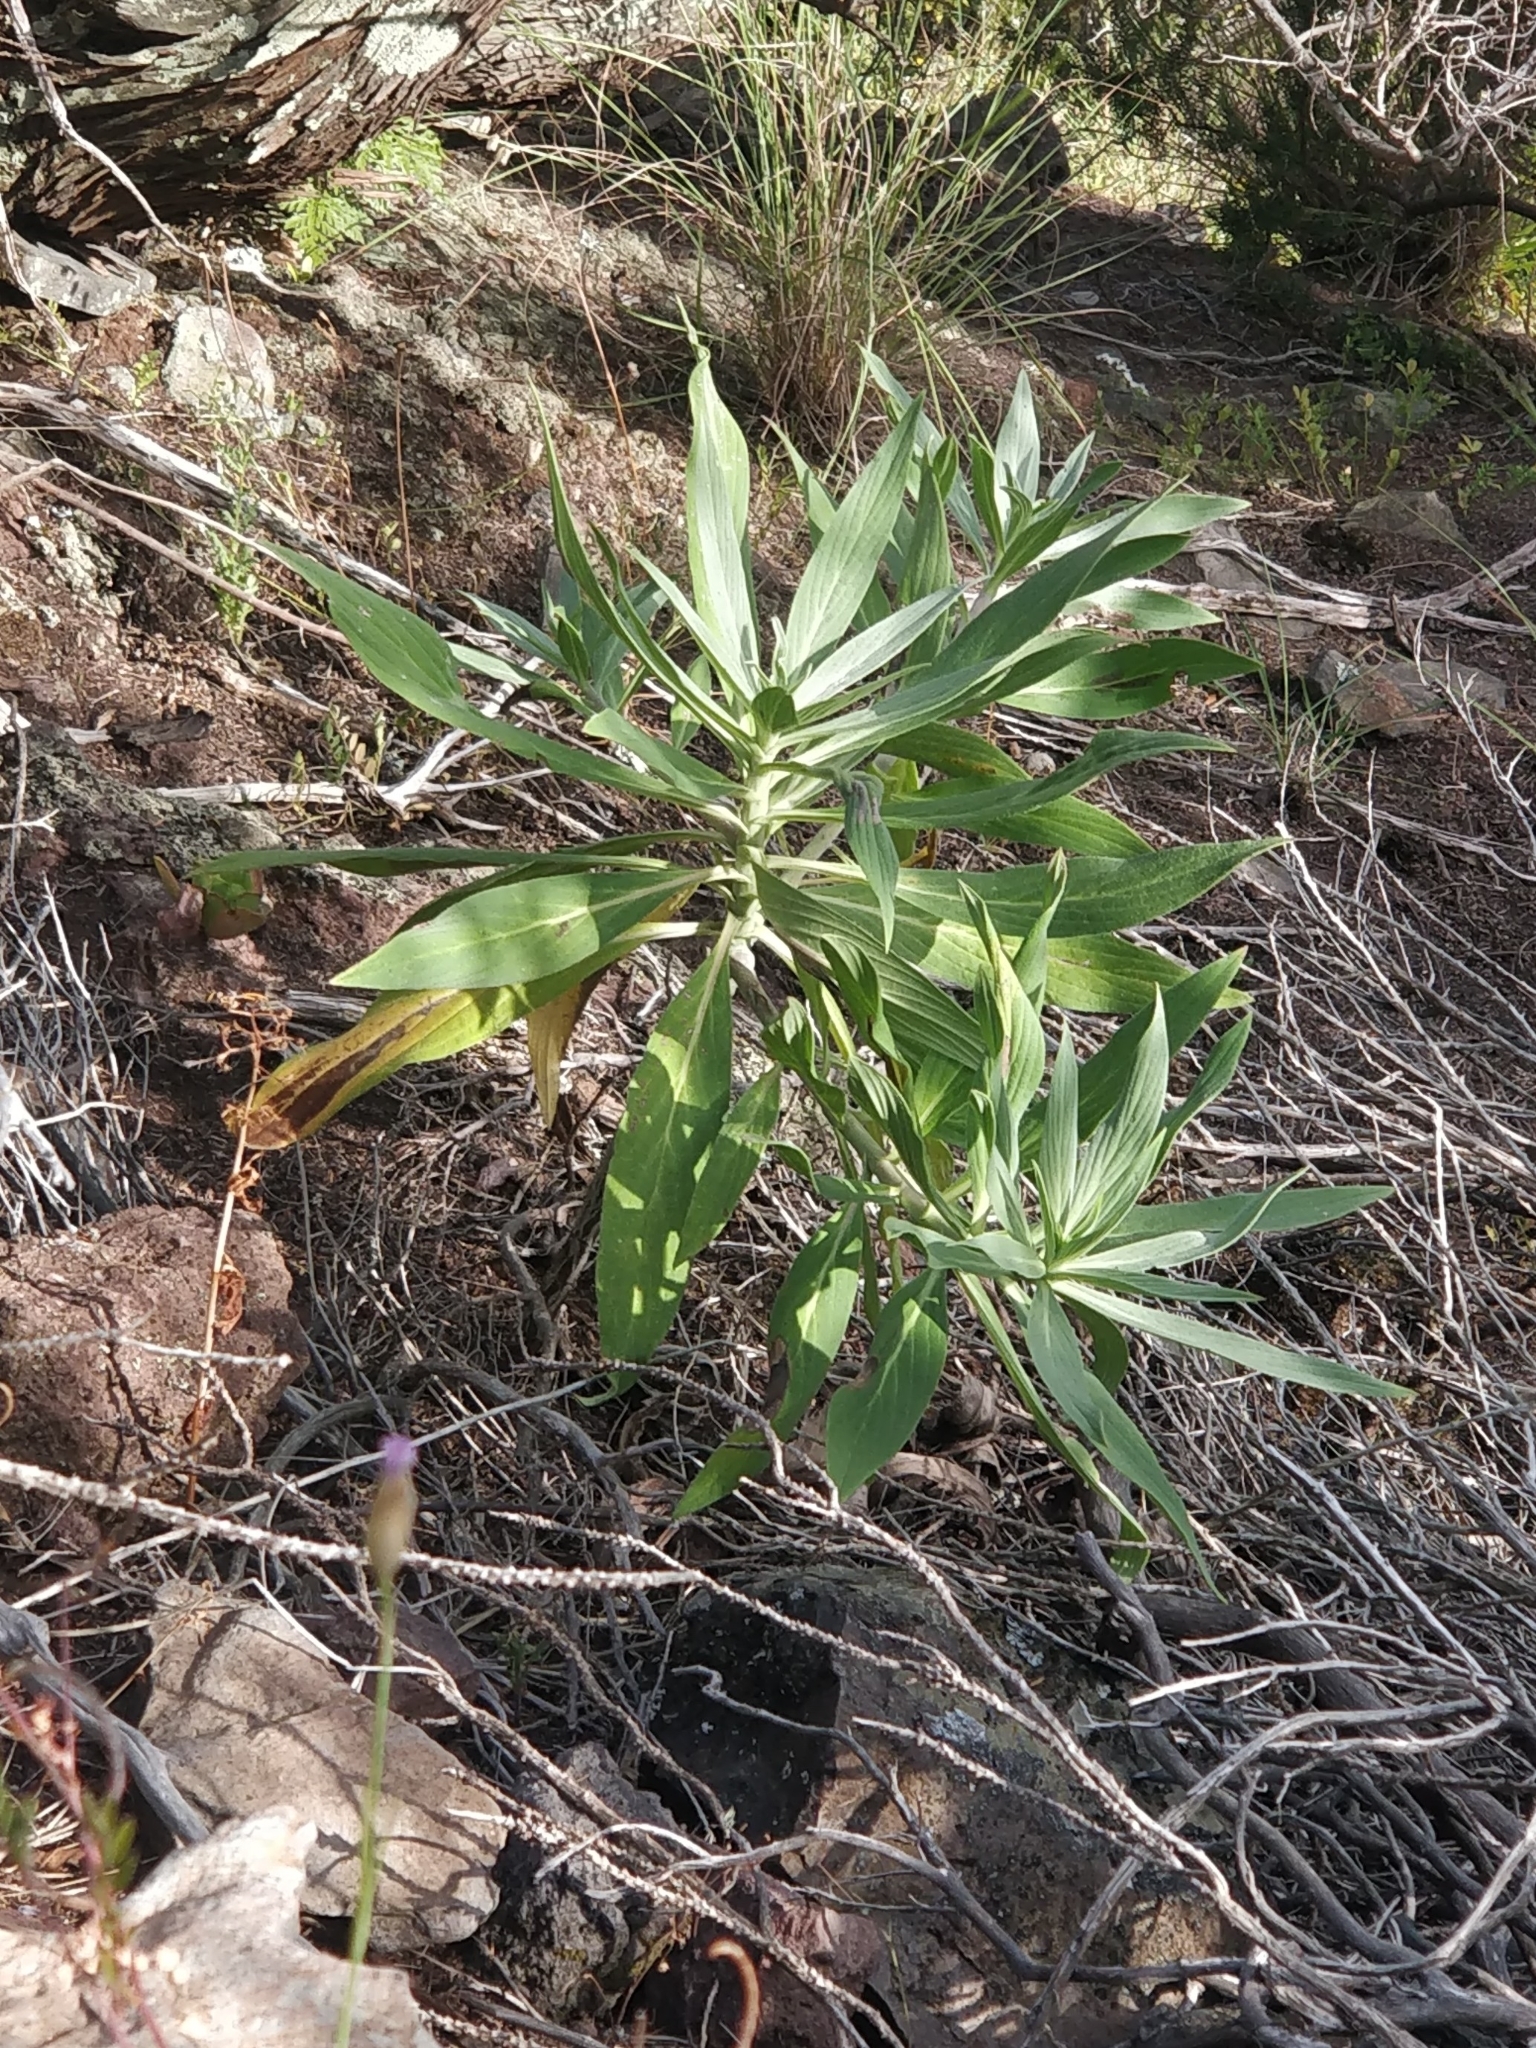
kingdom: Plantae
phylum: Tracheophyta
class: Magnoliopsida
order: Boraginales
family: Boraginaceae
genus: Echium
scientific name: Echium nervosum
